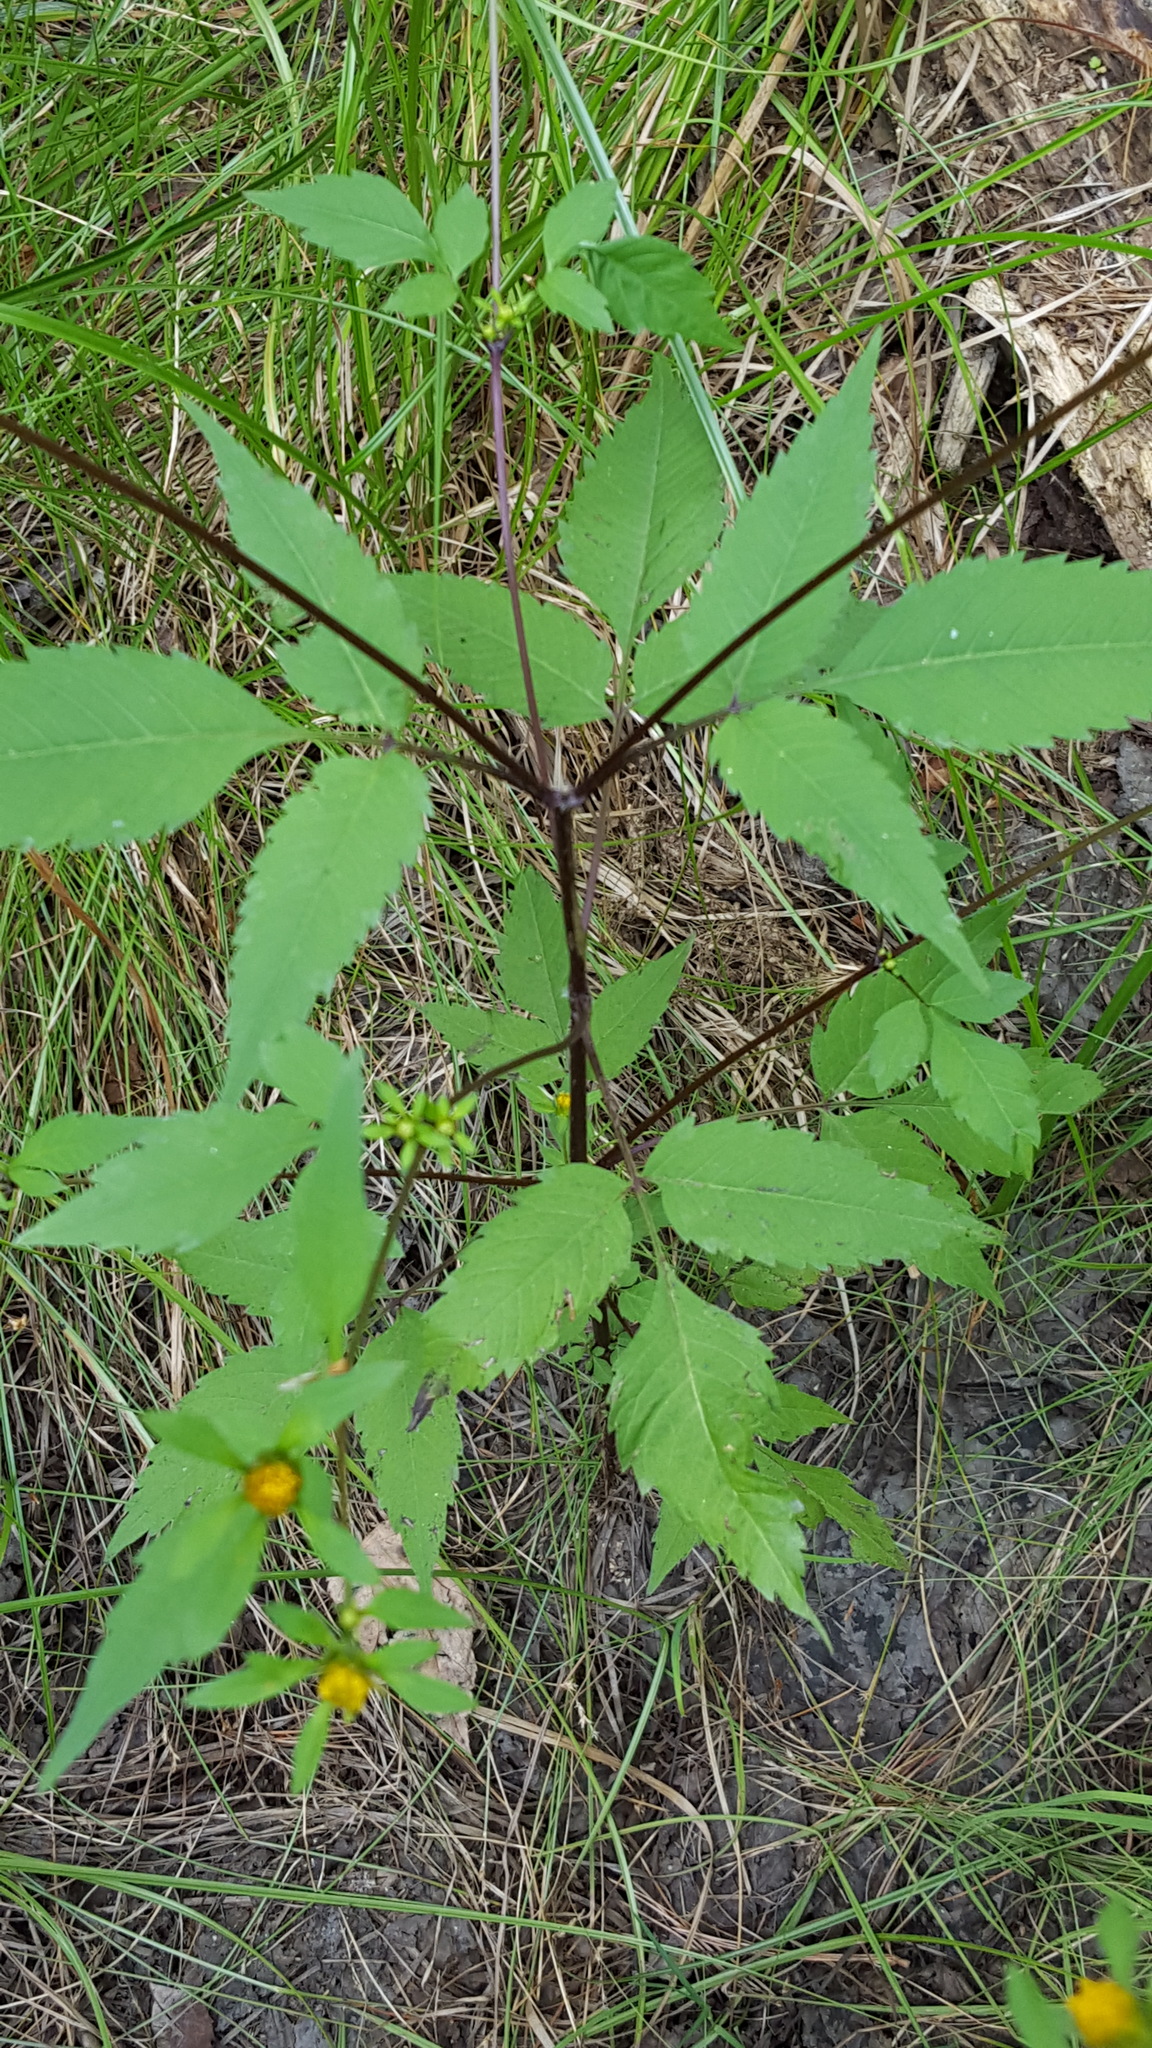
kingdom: Plantae
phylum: Tracheophyta
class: Magnoliopsida
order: Asterales
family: Asteraceae
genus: Bidens
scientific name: Bidens frondosa
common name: Beggarticks
